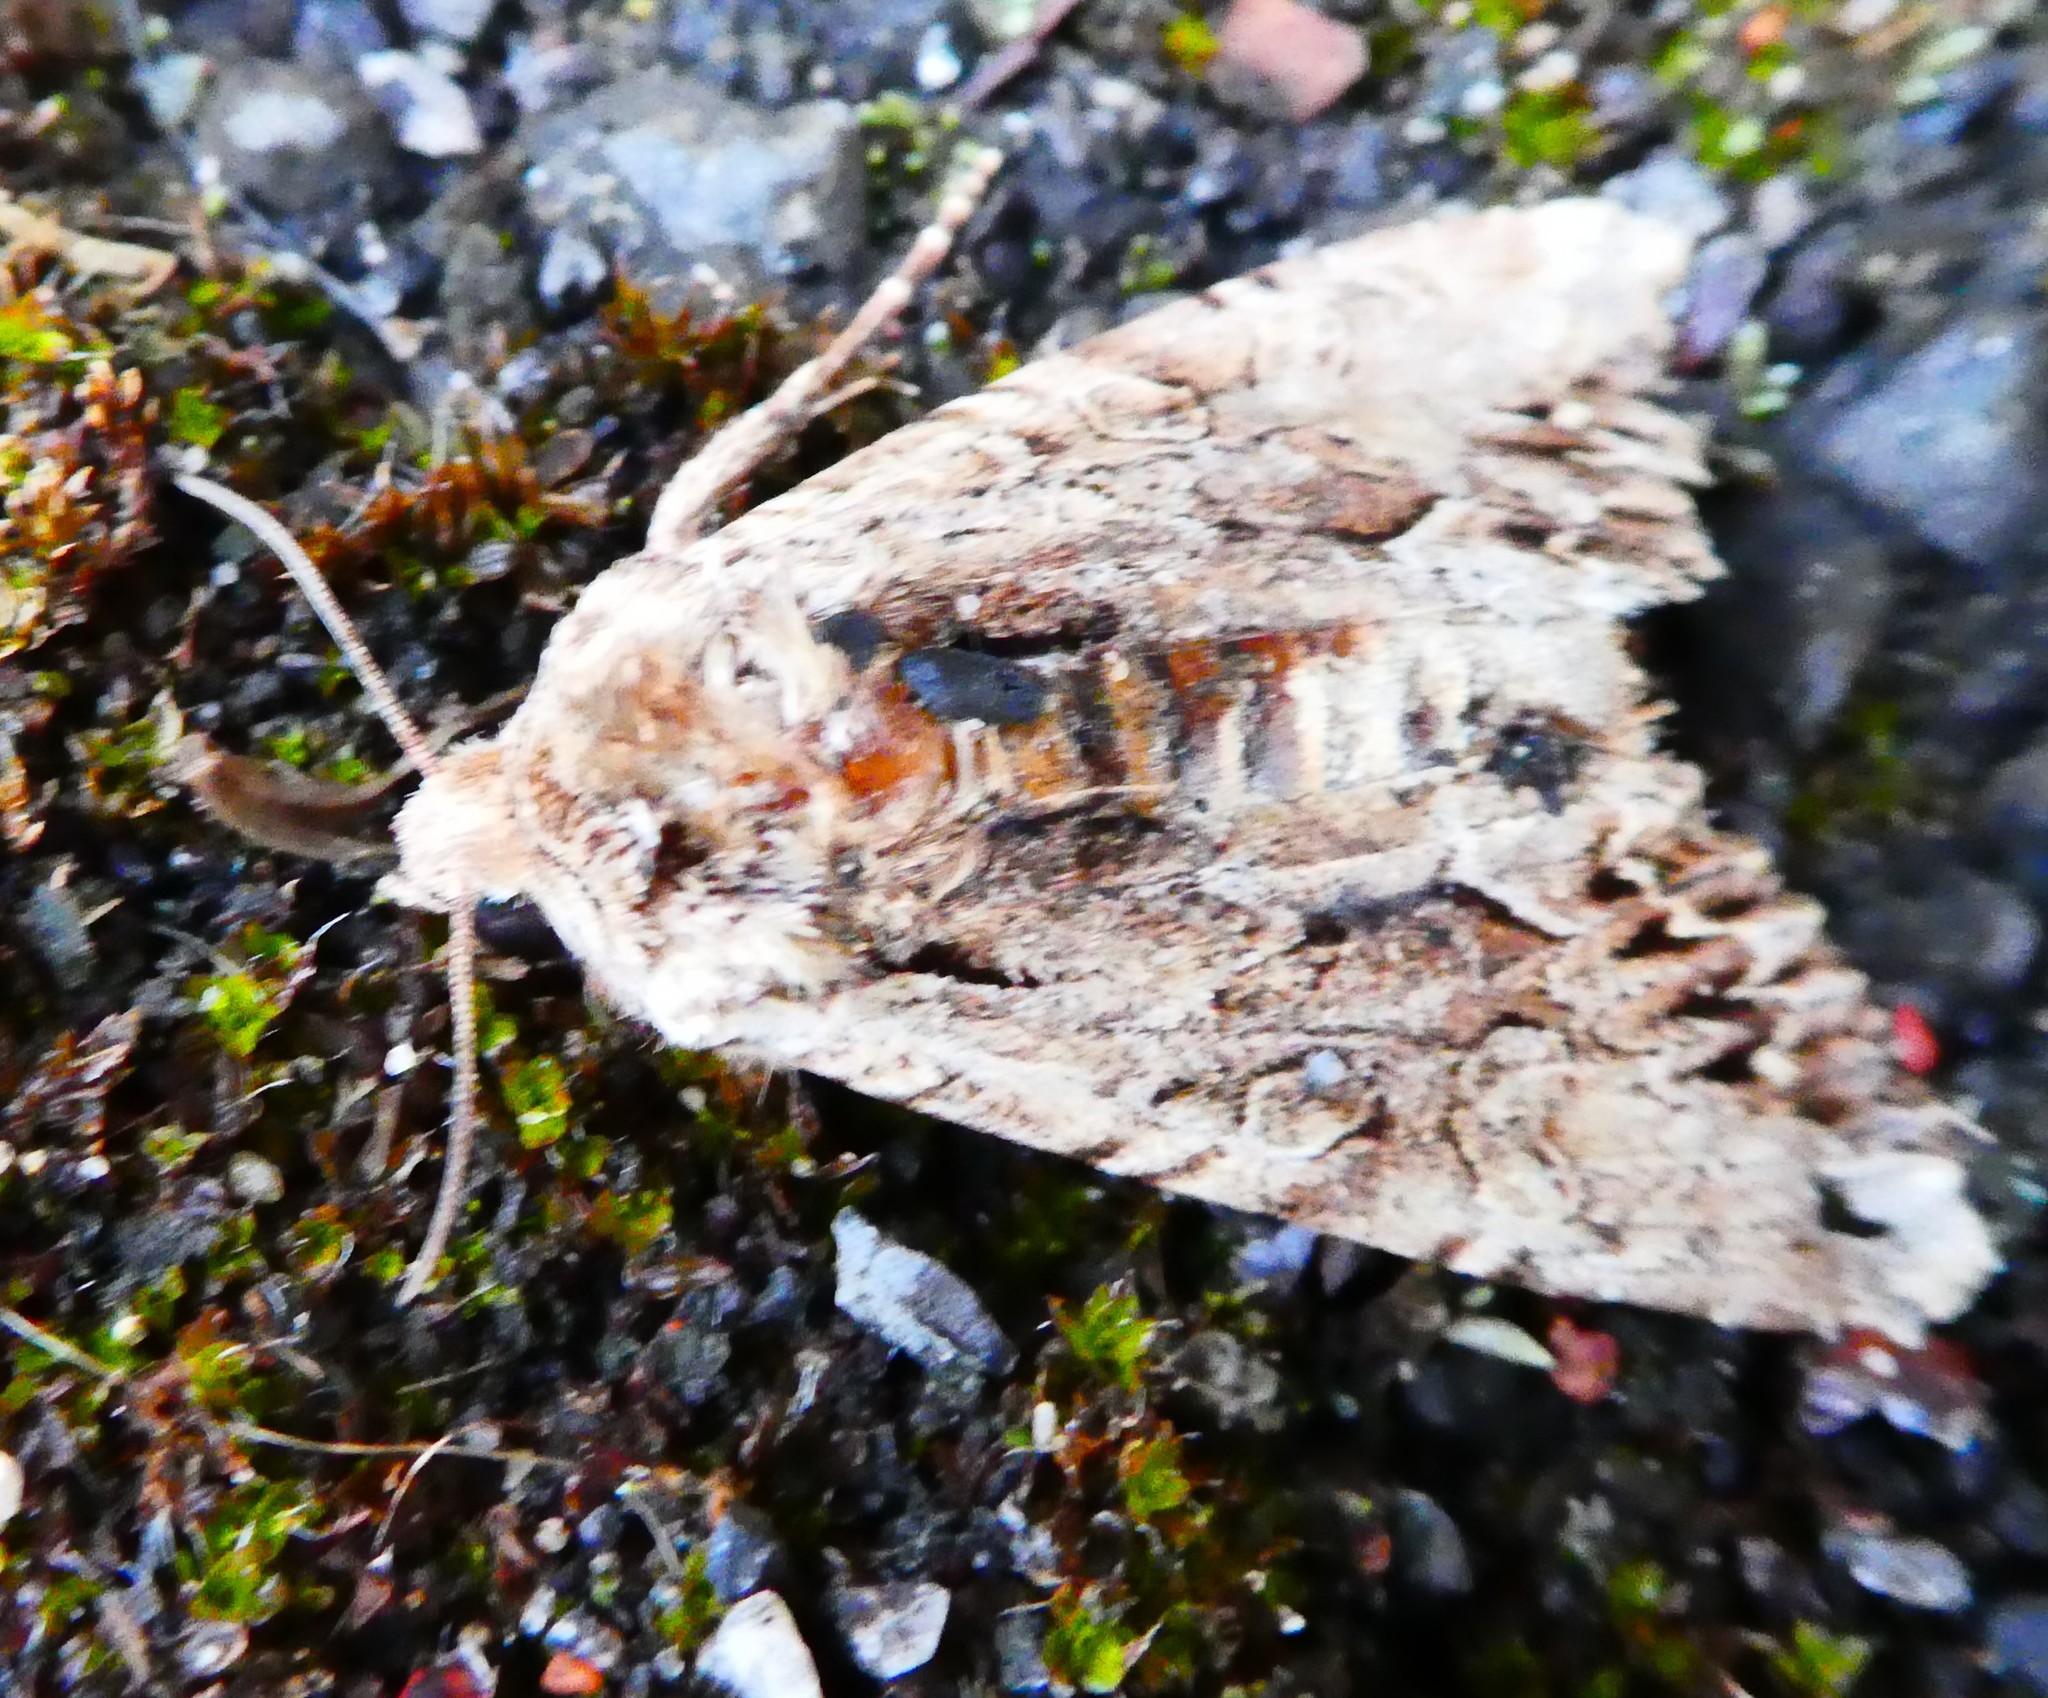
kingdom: Animalia
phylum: Arthropoda
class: Insecta
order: Lepidoptera
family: Noctuidae
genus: Apamea
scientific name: Apamea monoglypha
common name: Dark arches
